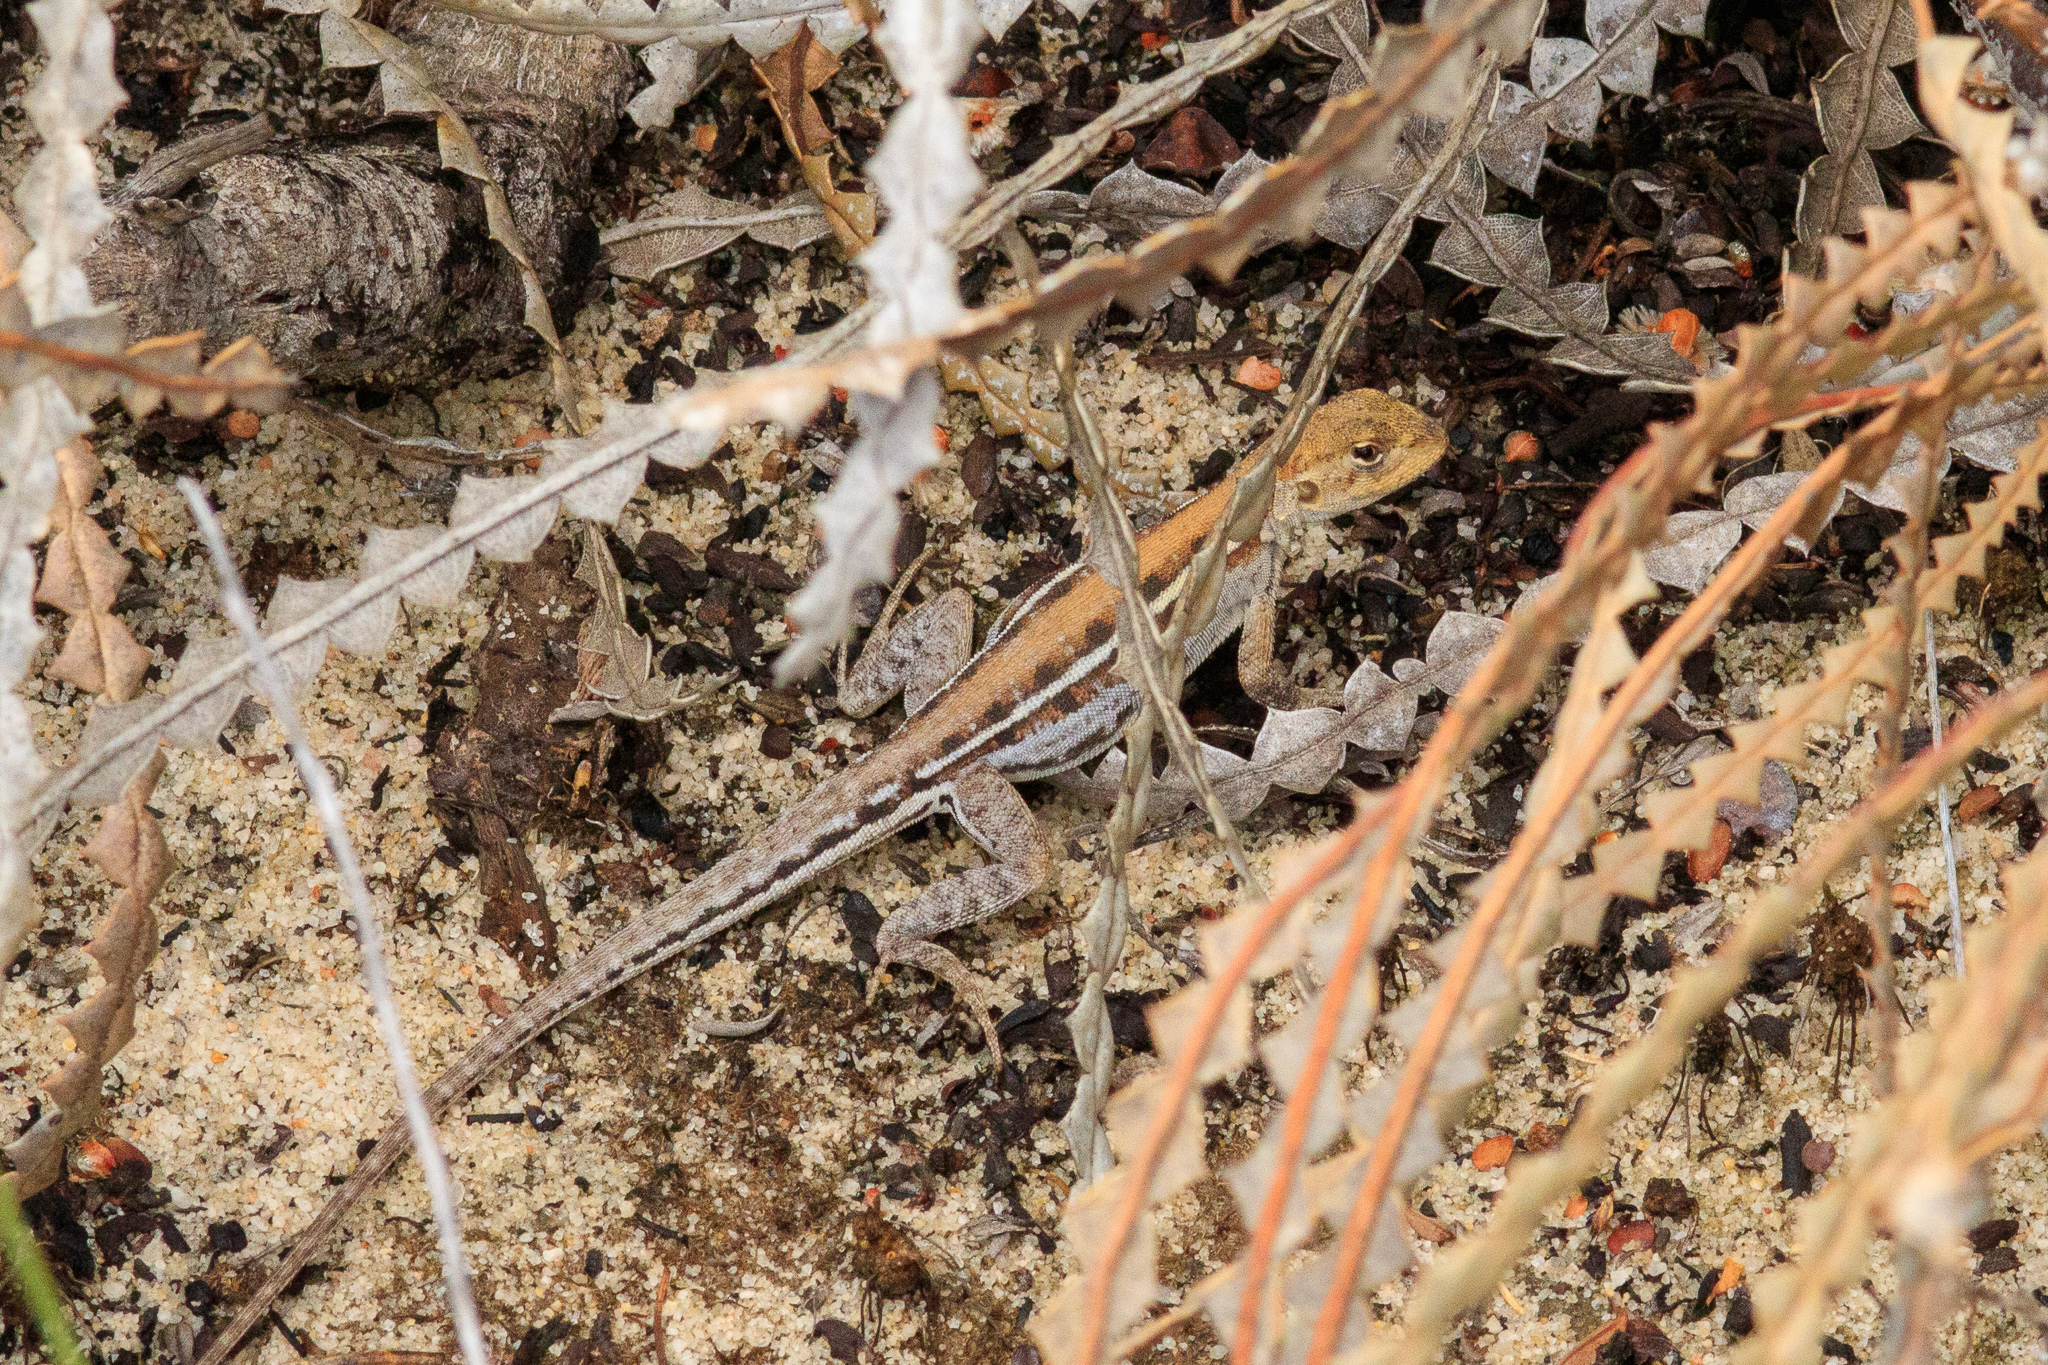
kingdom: Animalia
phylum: Chordata
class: Squamata
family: Agamidae
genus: Ctenophorus
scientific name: Ctenophorus maculatus
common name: Spotted dragon
